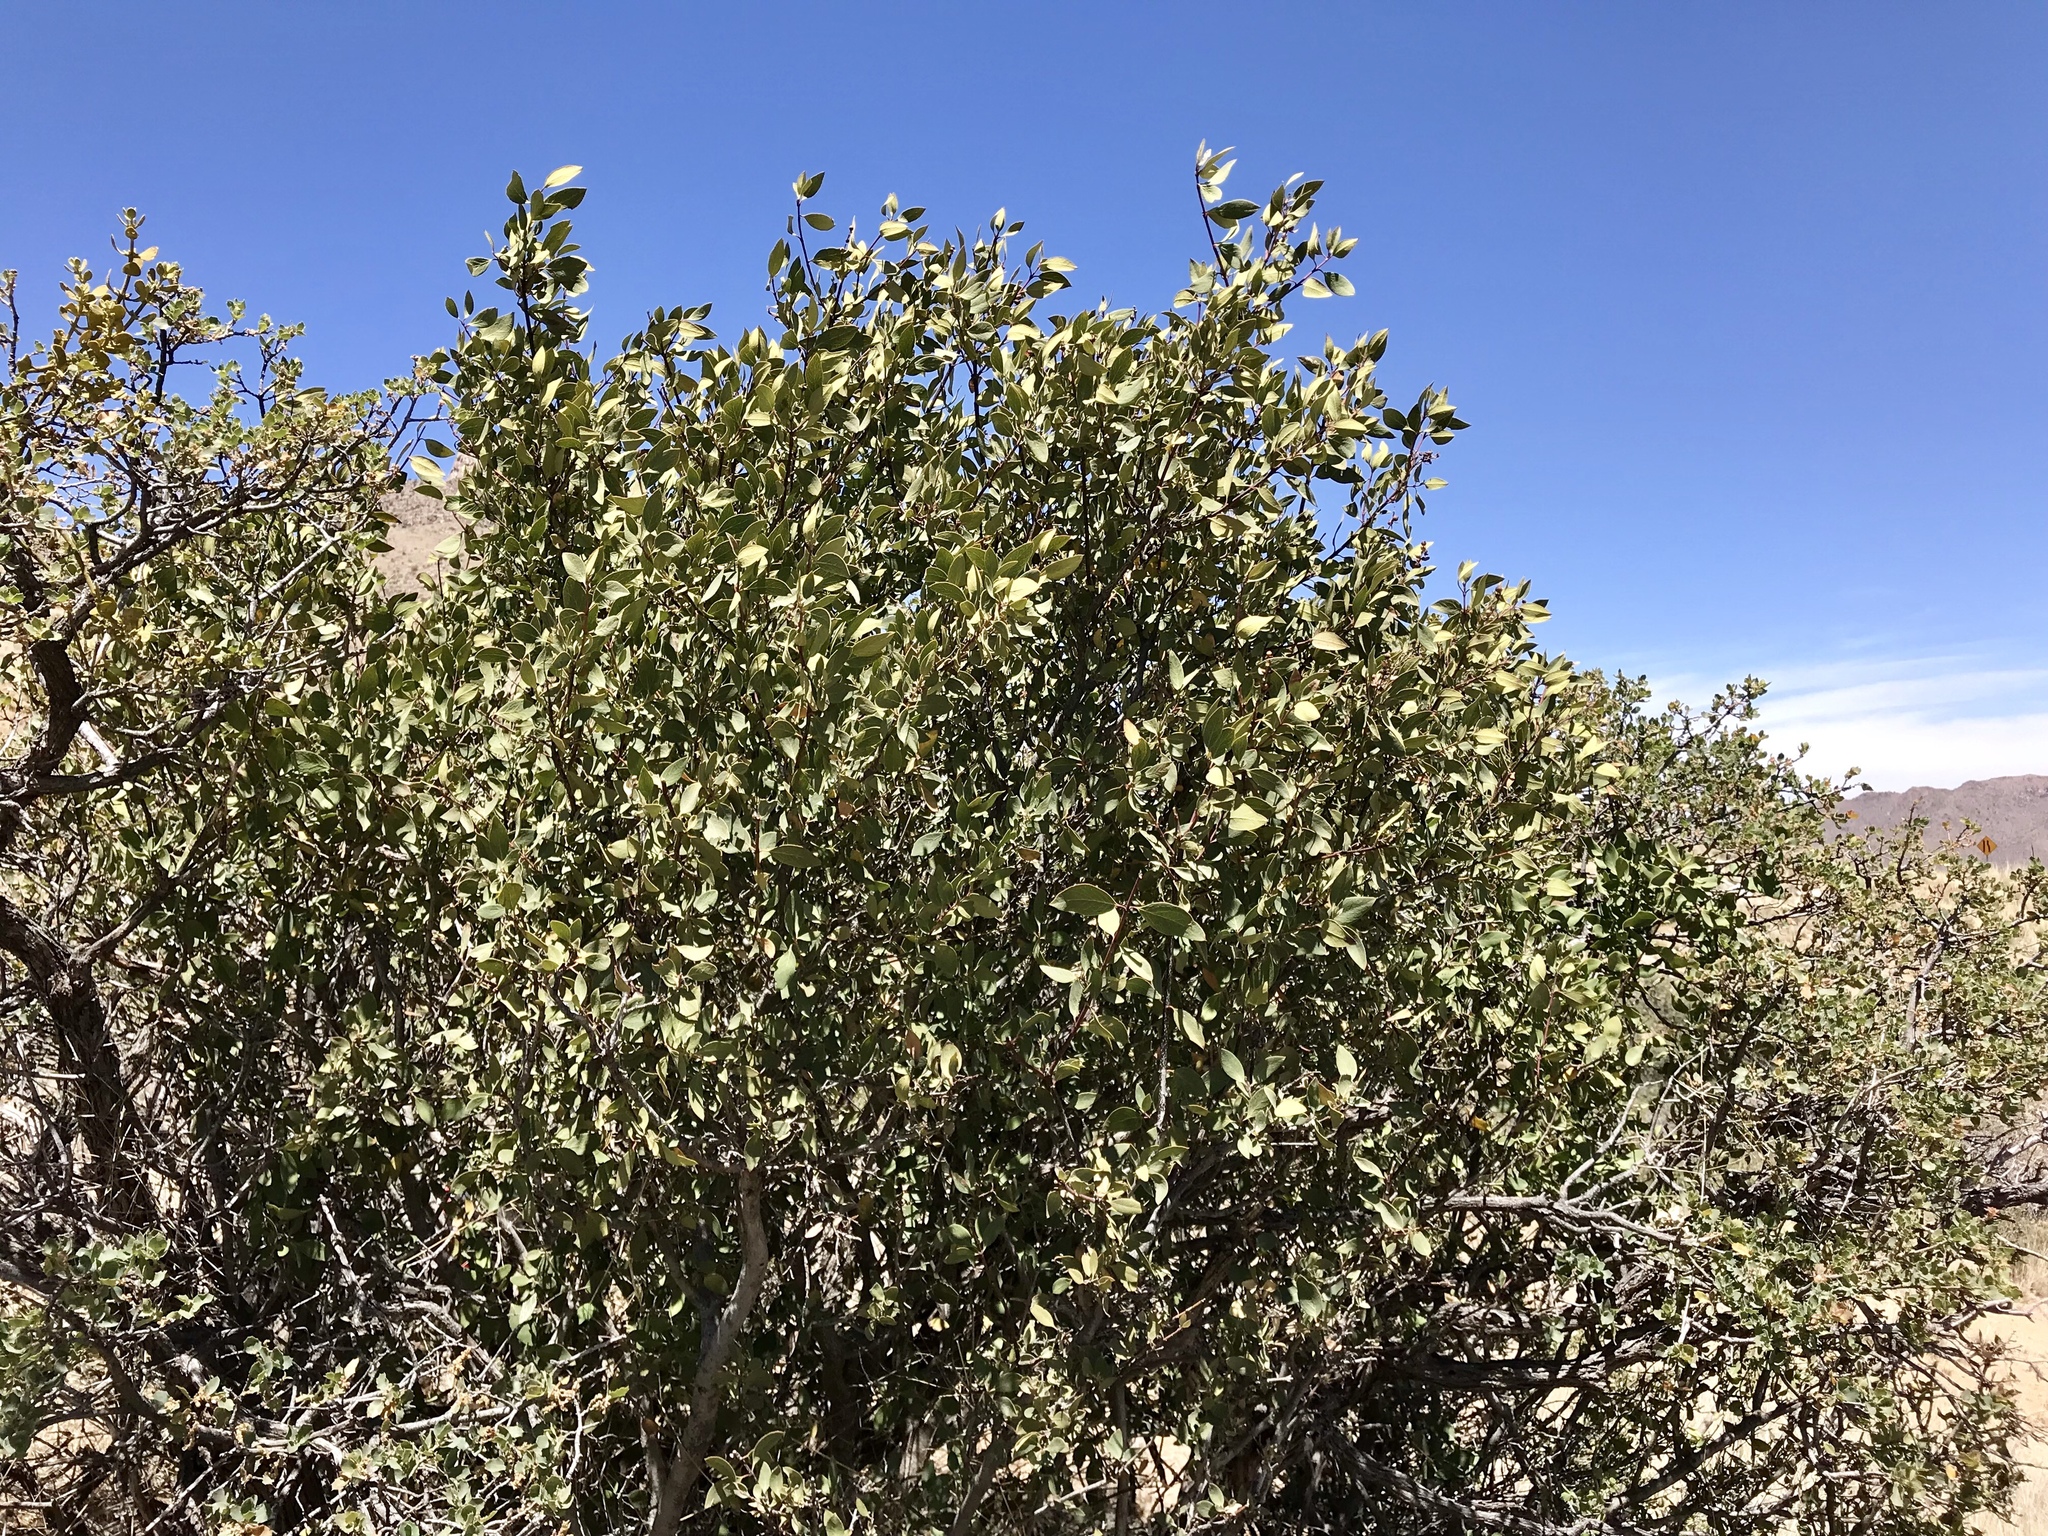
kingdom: Plantae
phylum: Tracheophyta
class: Magnoliopsida
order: Garryales
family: Garryaceae
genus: Garrya
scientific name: Garrya wrightii
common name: Wright's silktassel
